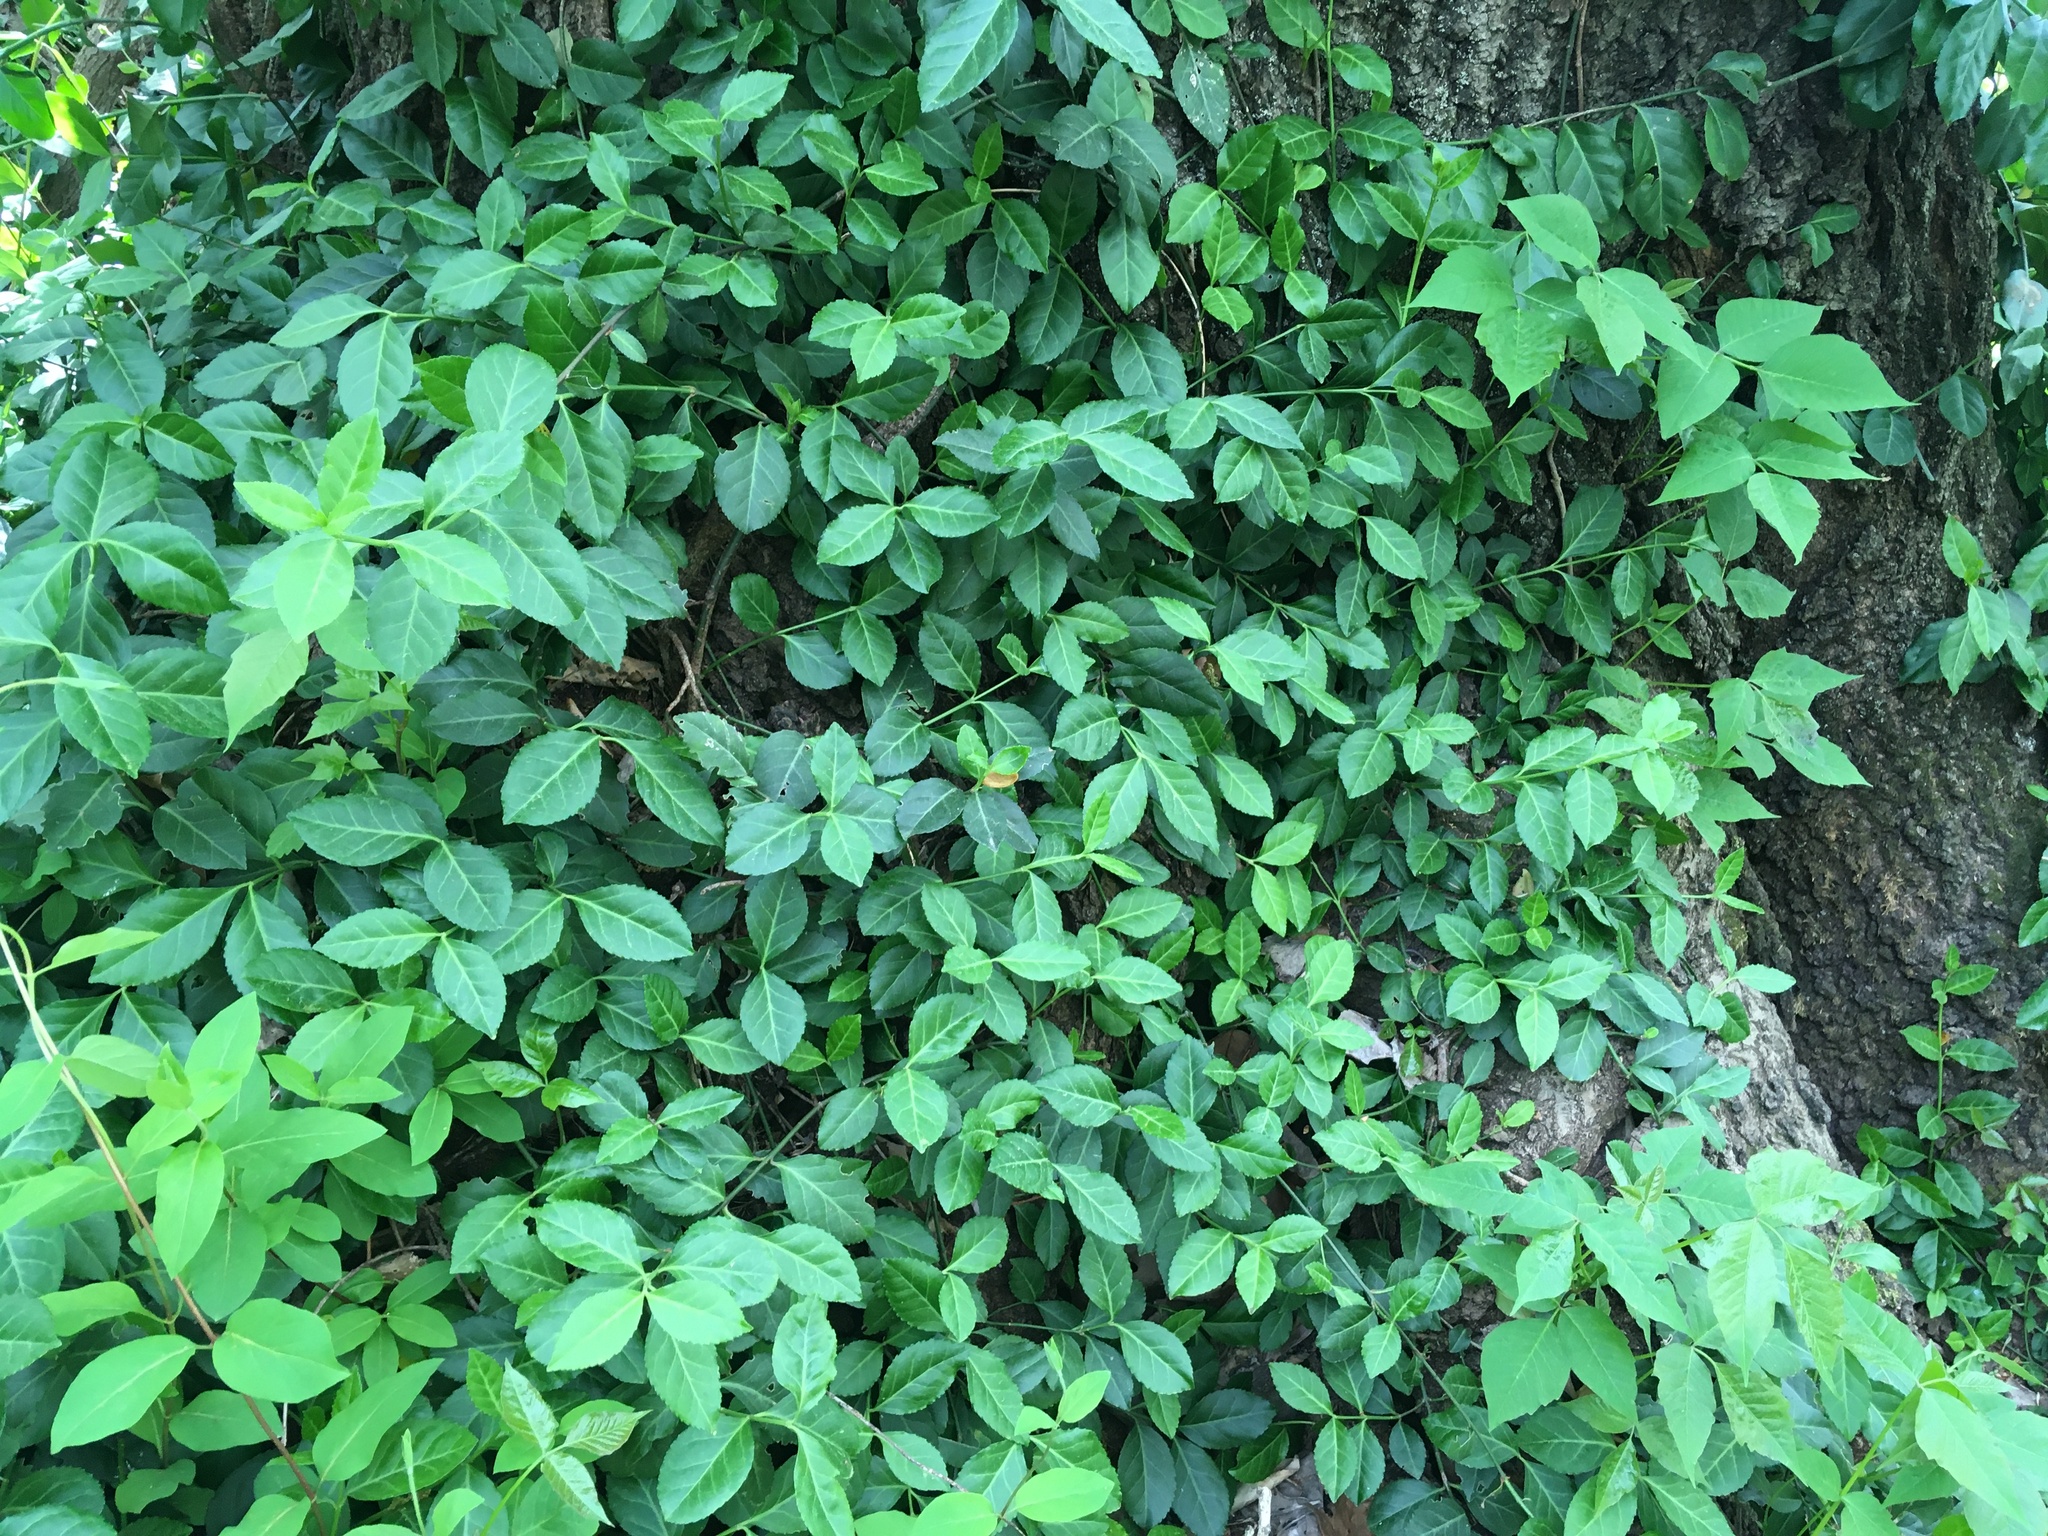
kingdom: Plantae
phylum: Tracheophyta
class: Magnoliopsida
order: Celastrales
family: Celastraceae
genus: Euonymus
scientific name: Euonymus fortunei
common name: Climbing euonymus
